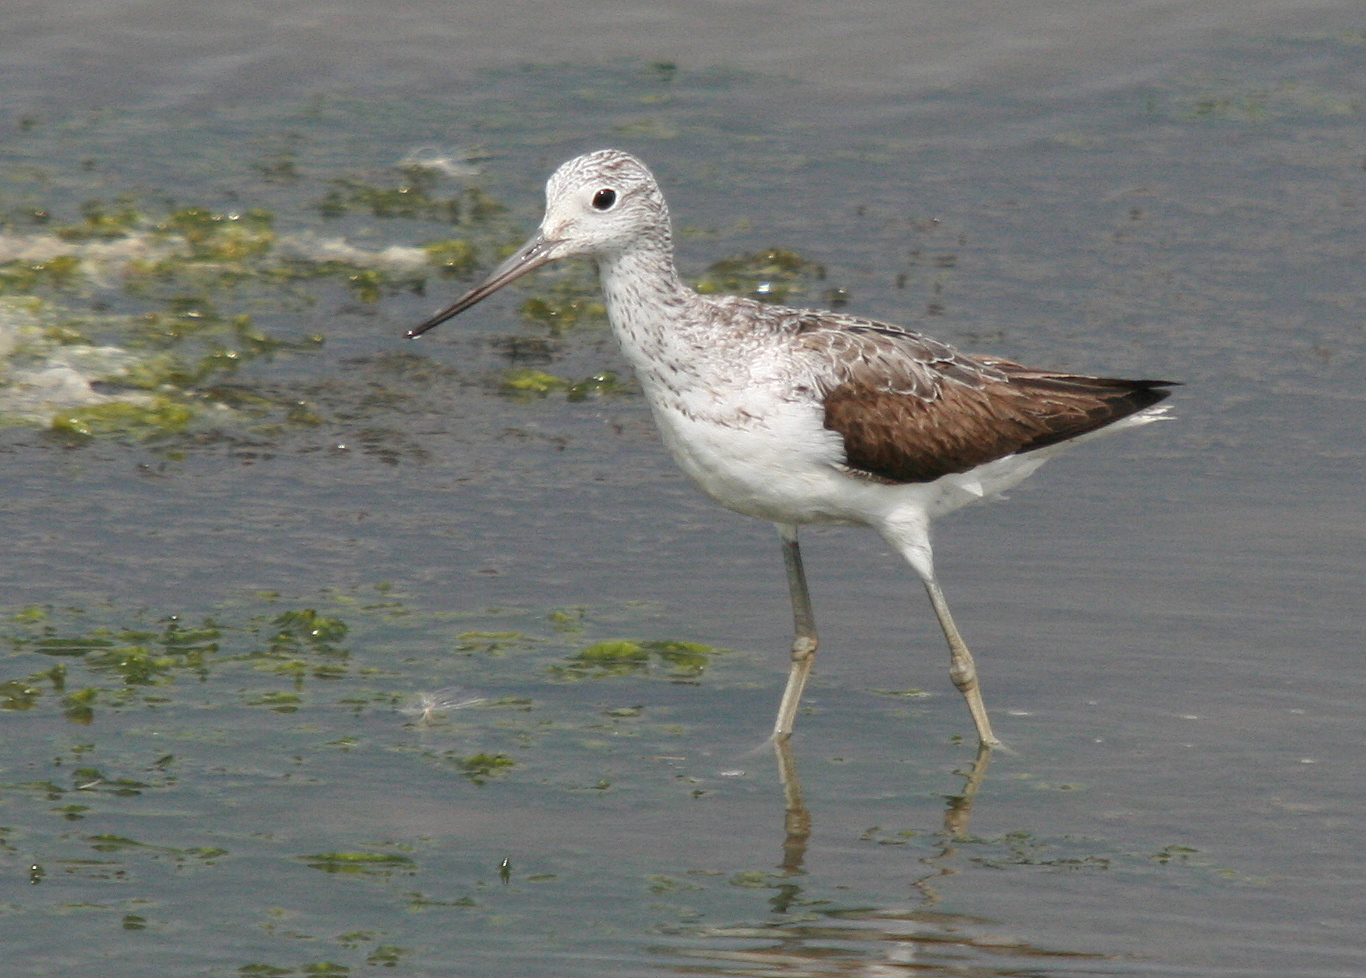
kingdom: Animalia
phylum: Chordata
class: Aves
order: Charadriiformes
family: Scolopacidae
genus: Tringa
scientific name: Tringa nebularia
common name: Common greenshank
